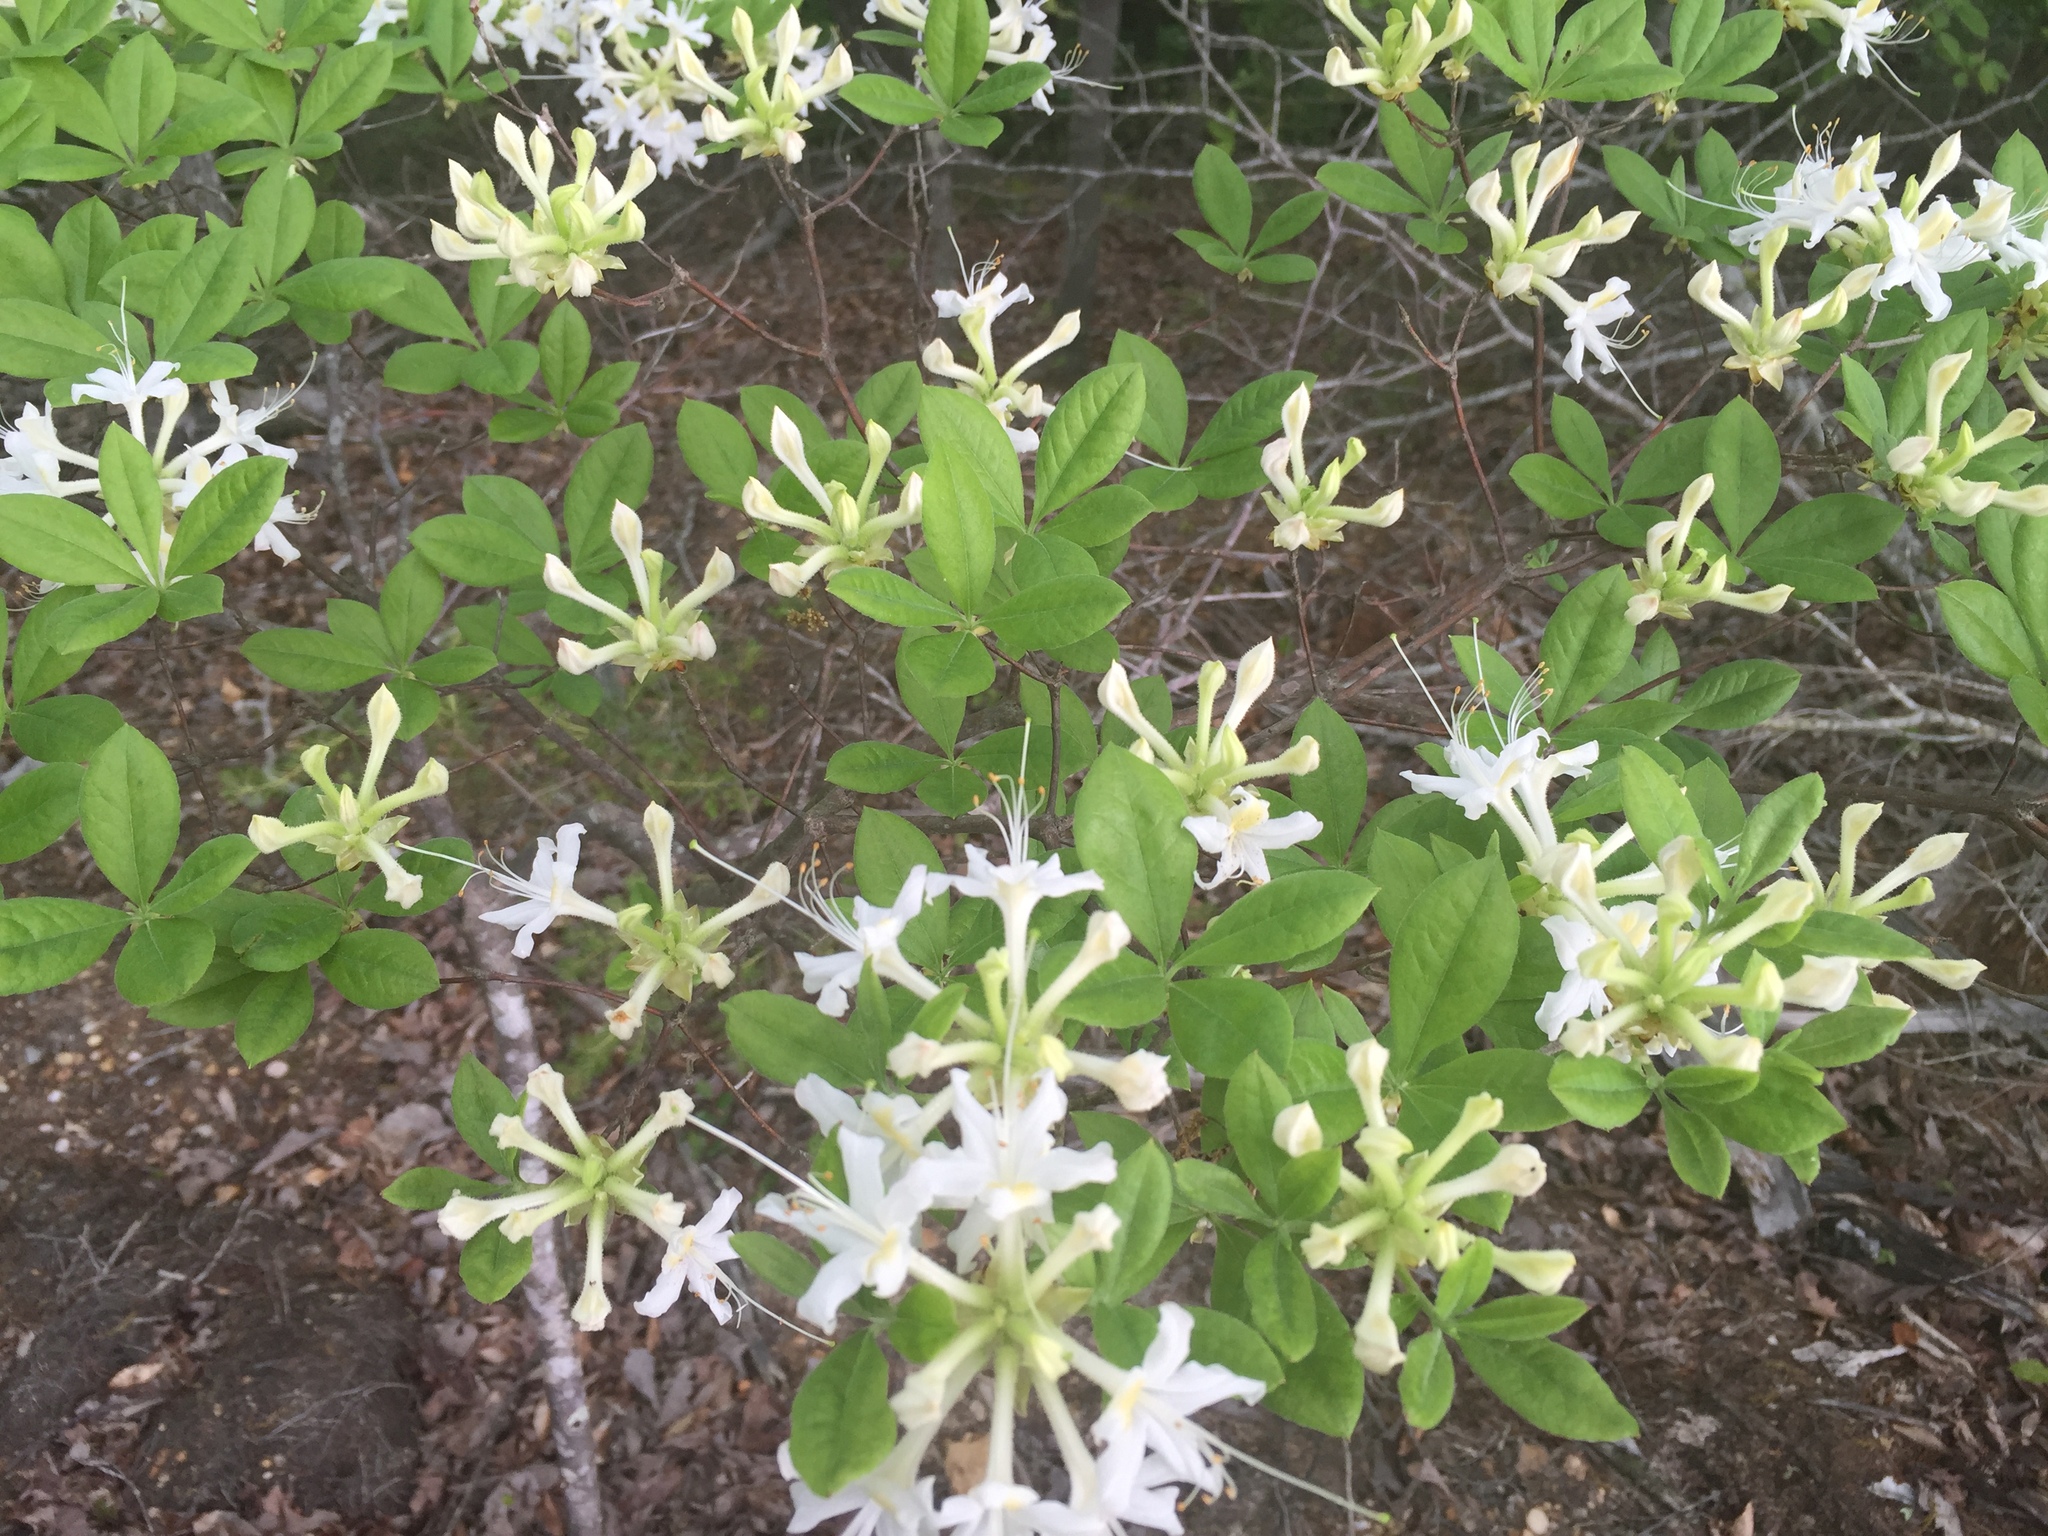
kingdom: Plantae
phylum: Tracheophyta
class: Magnoliopsida
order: Ericales
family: Ericaceae
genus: Rhododendron
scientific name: Rhododendron alabamense
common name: Alabama azalea
